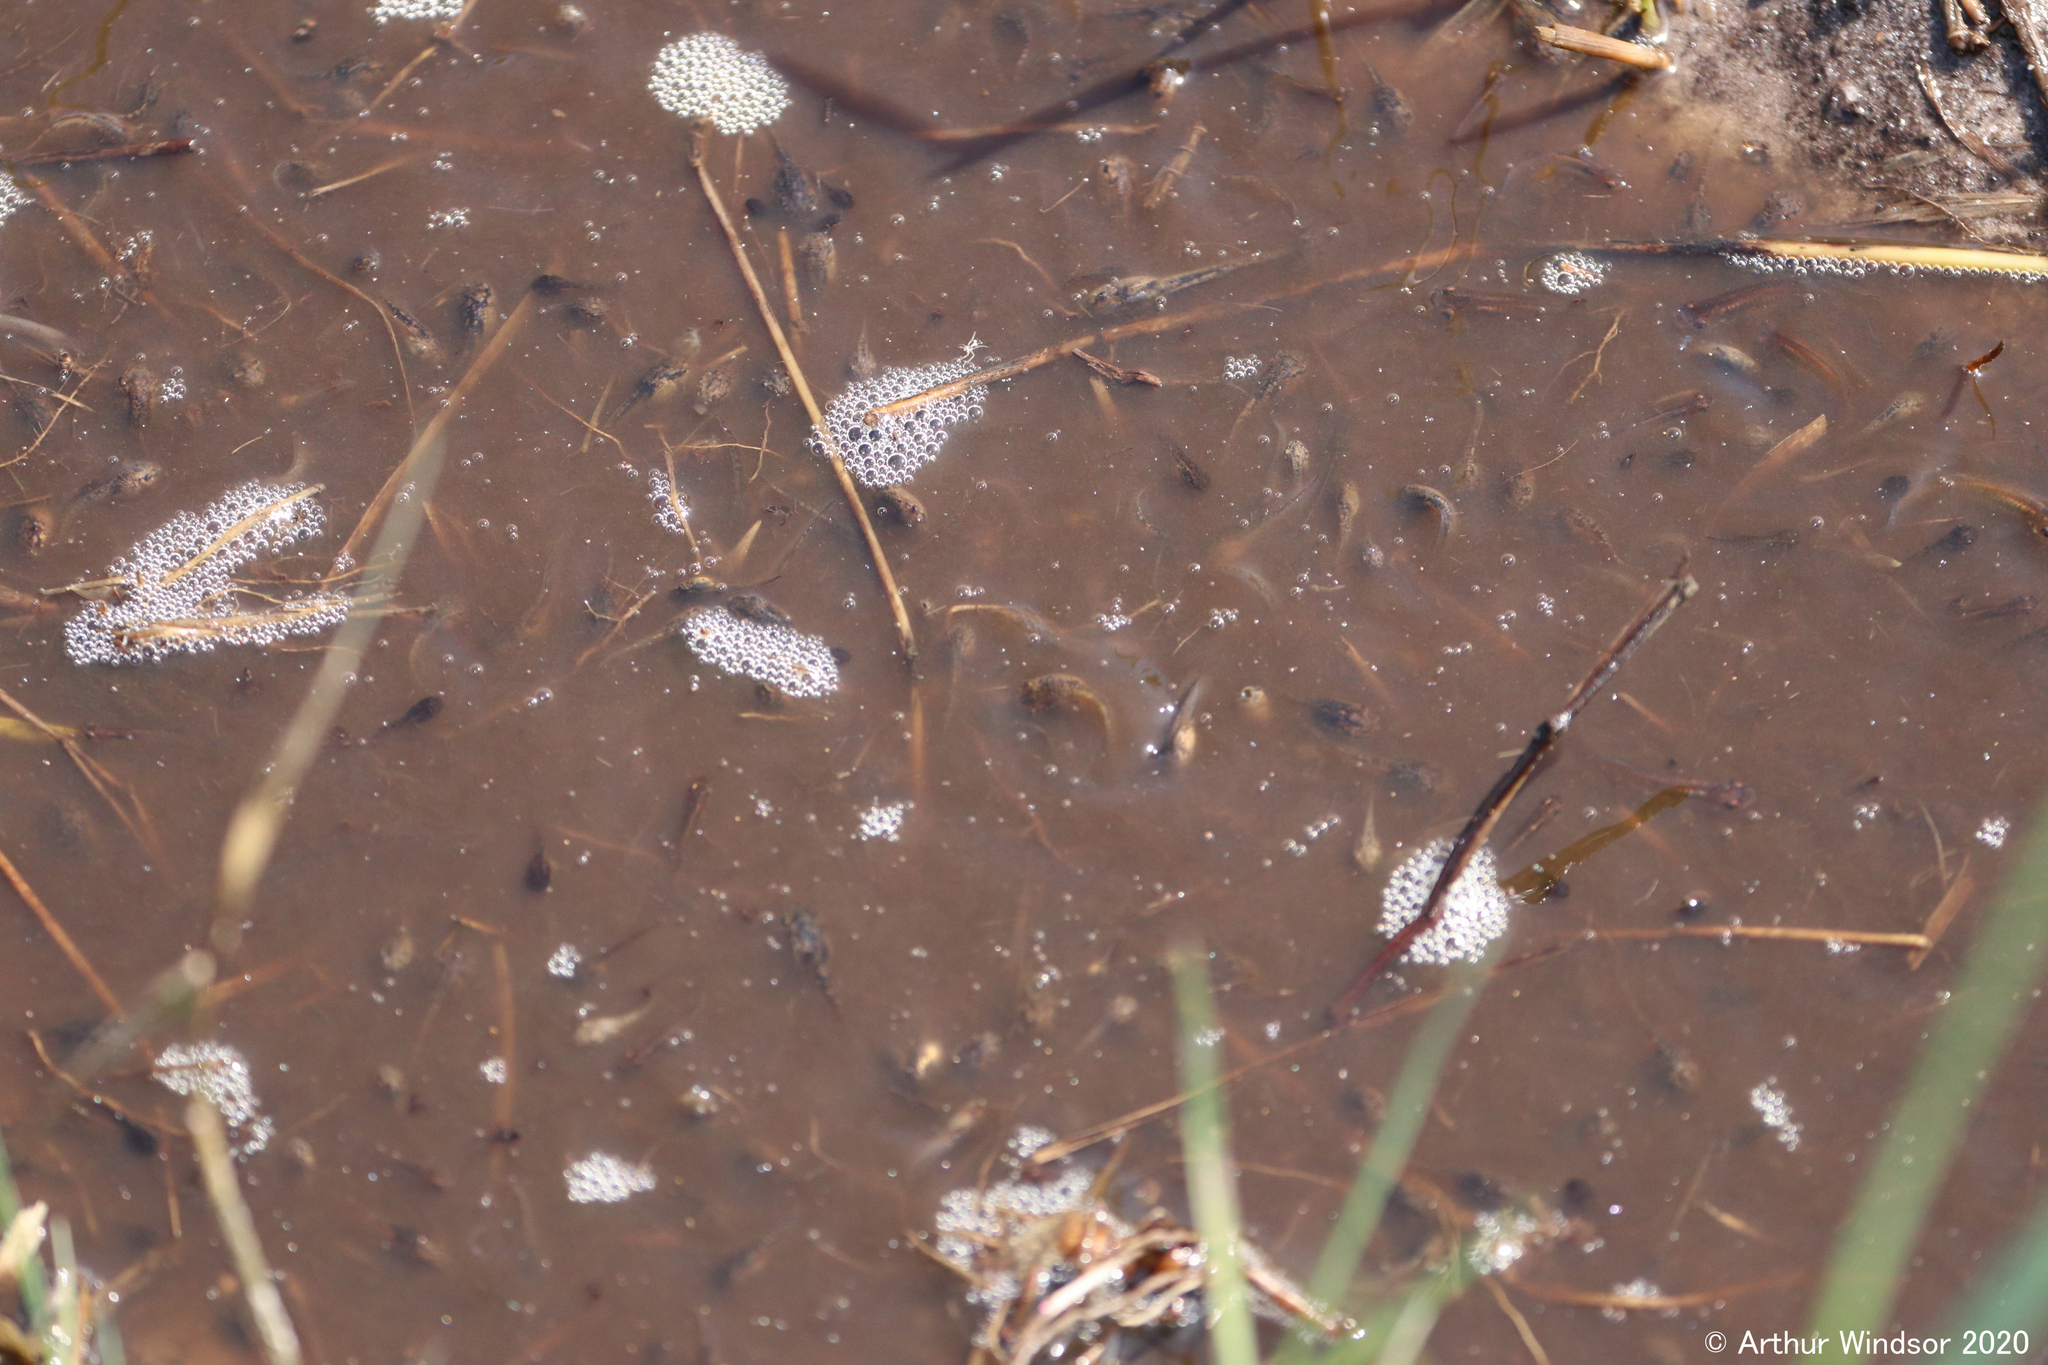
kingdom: Animalia
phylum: Chordata
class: Squamata
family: Colubridae
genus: Thamnophis
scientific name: Thamnophis sirtalis
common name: Common garter snake
